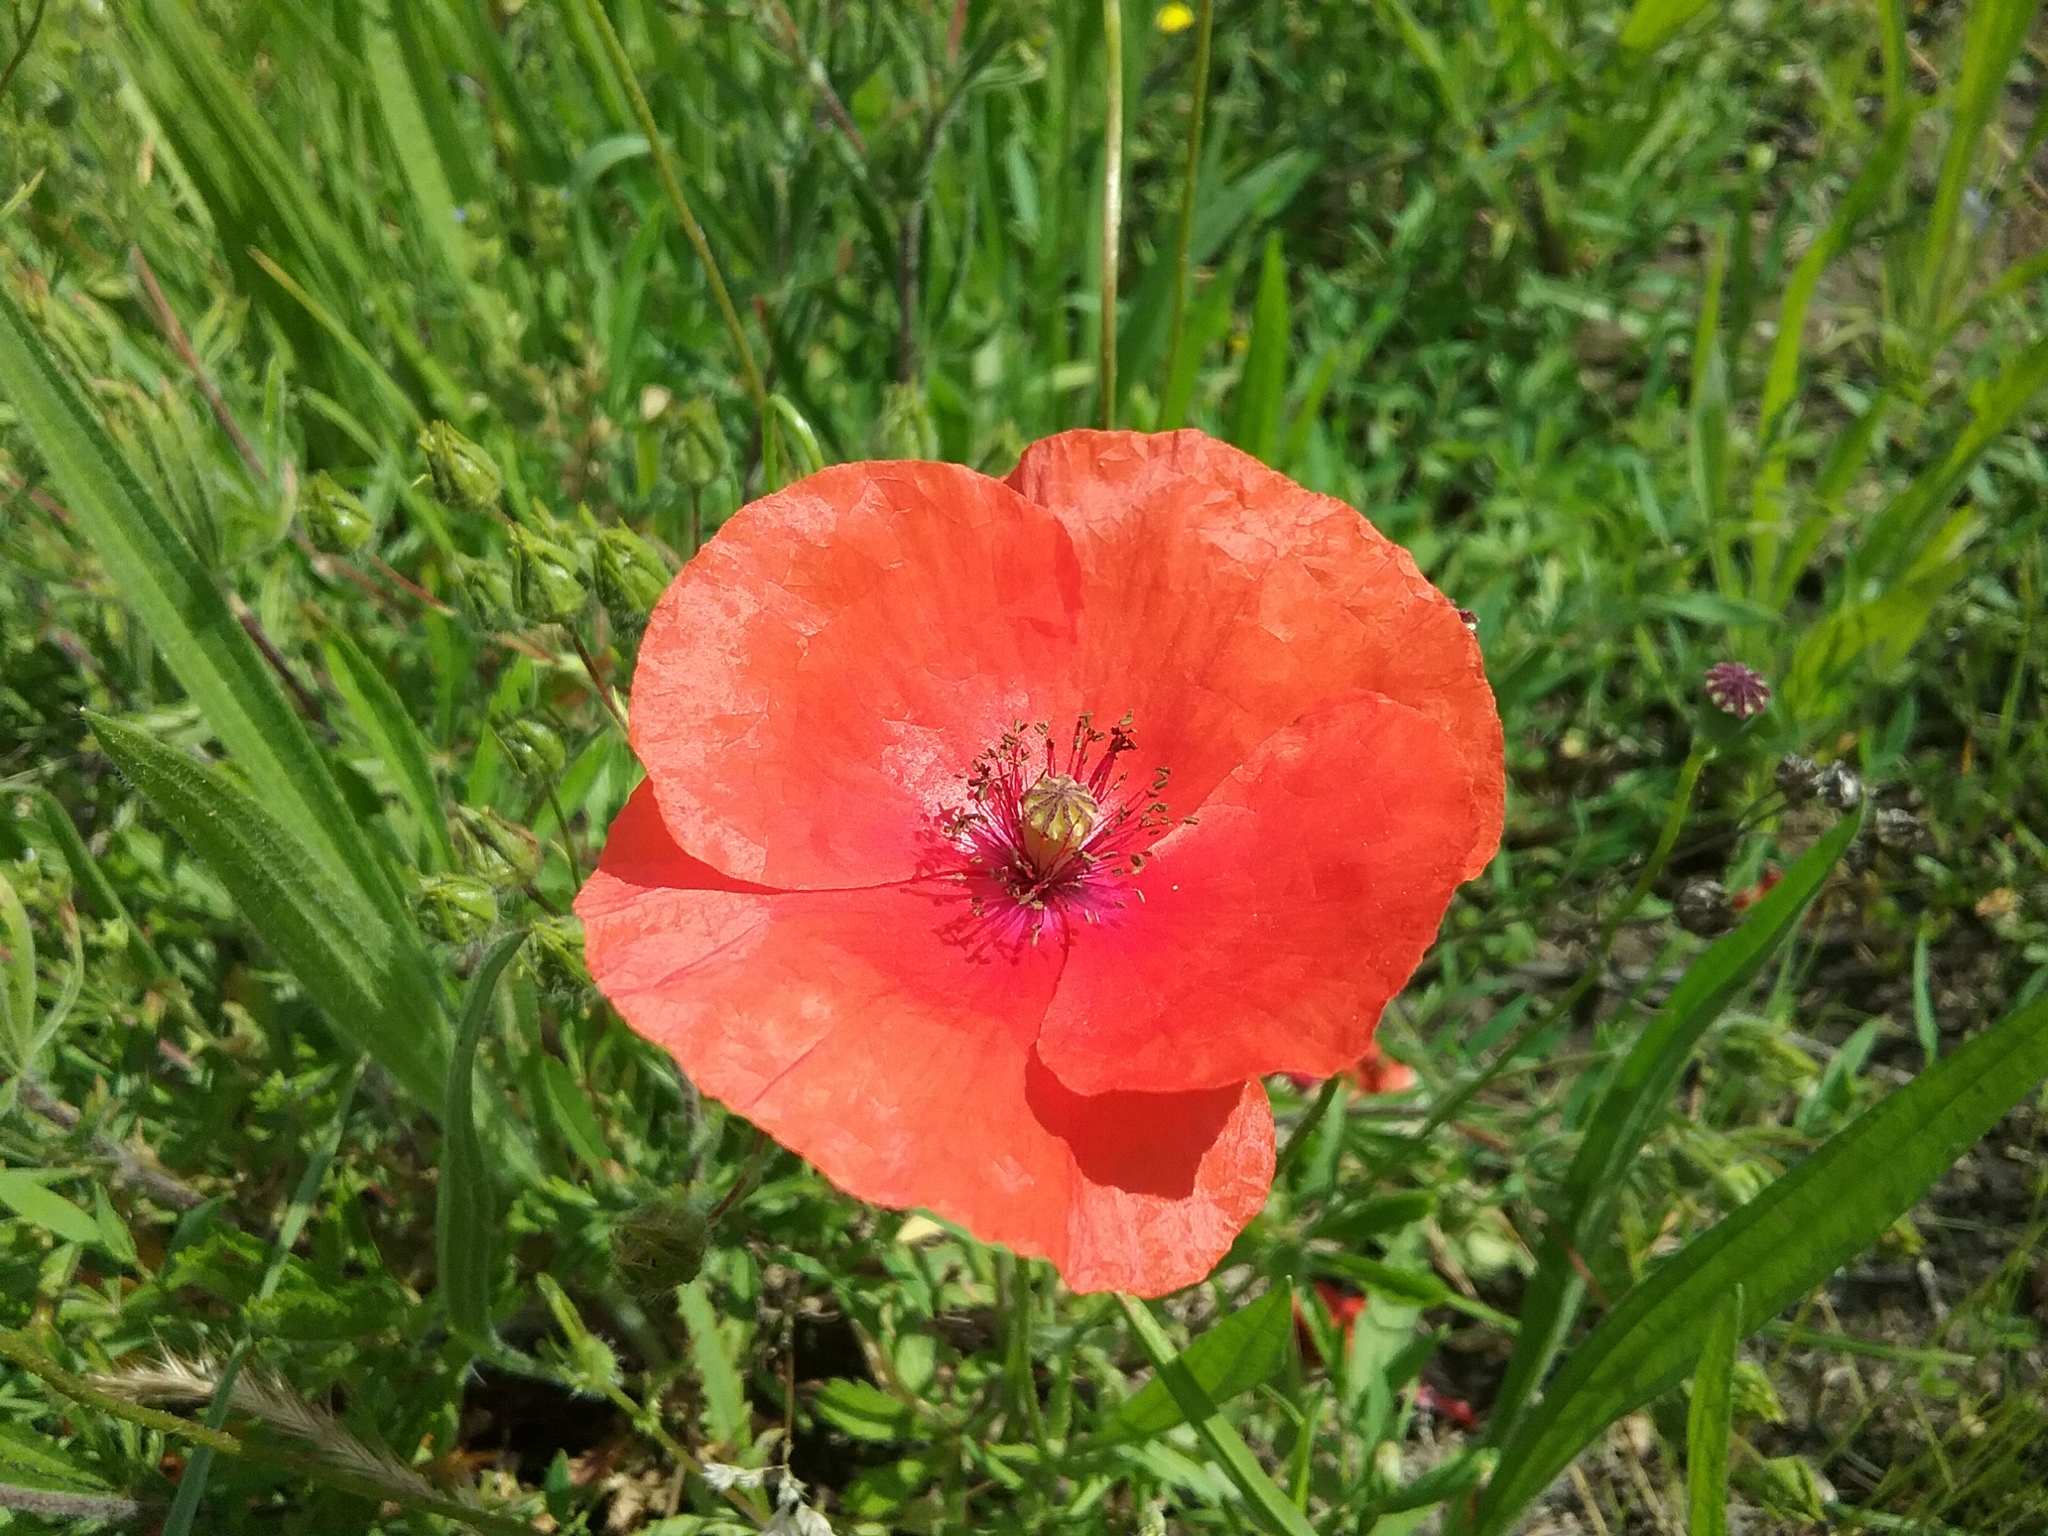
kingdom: Plantae
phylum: Tracheophyta
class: Magnoliopsida
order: Ranunculales
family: Papaveraceae
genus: Papaver
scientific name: Papaver rhoeas
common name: Corn poppy
